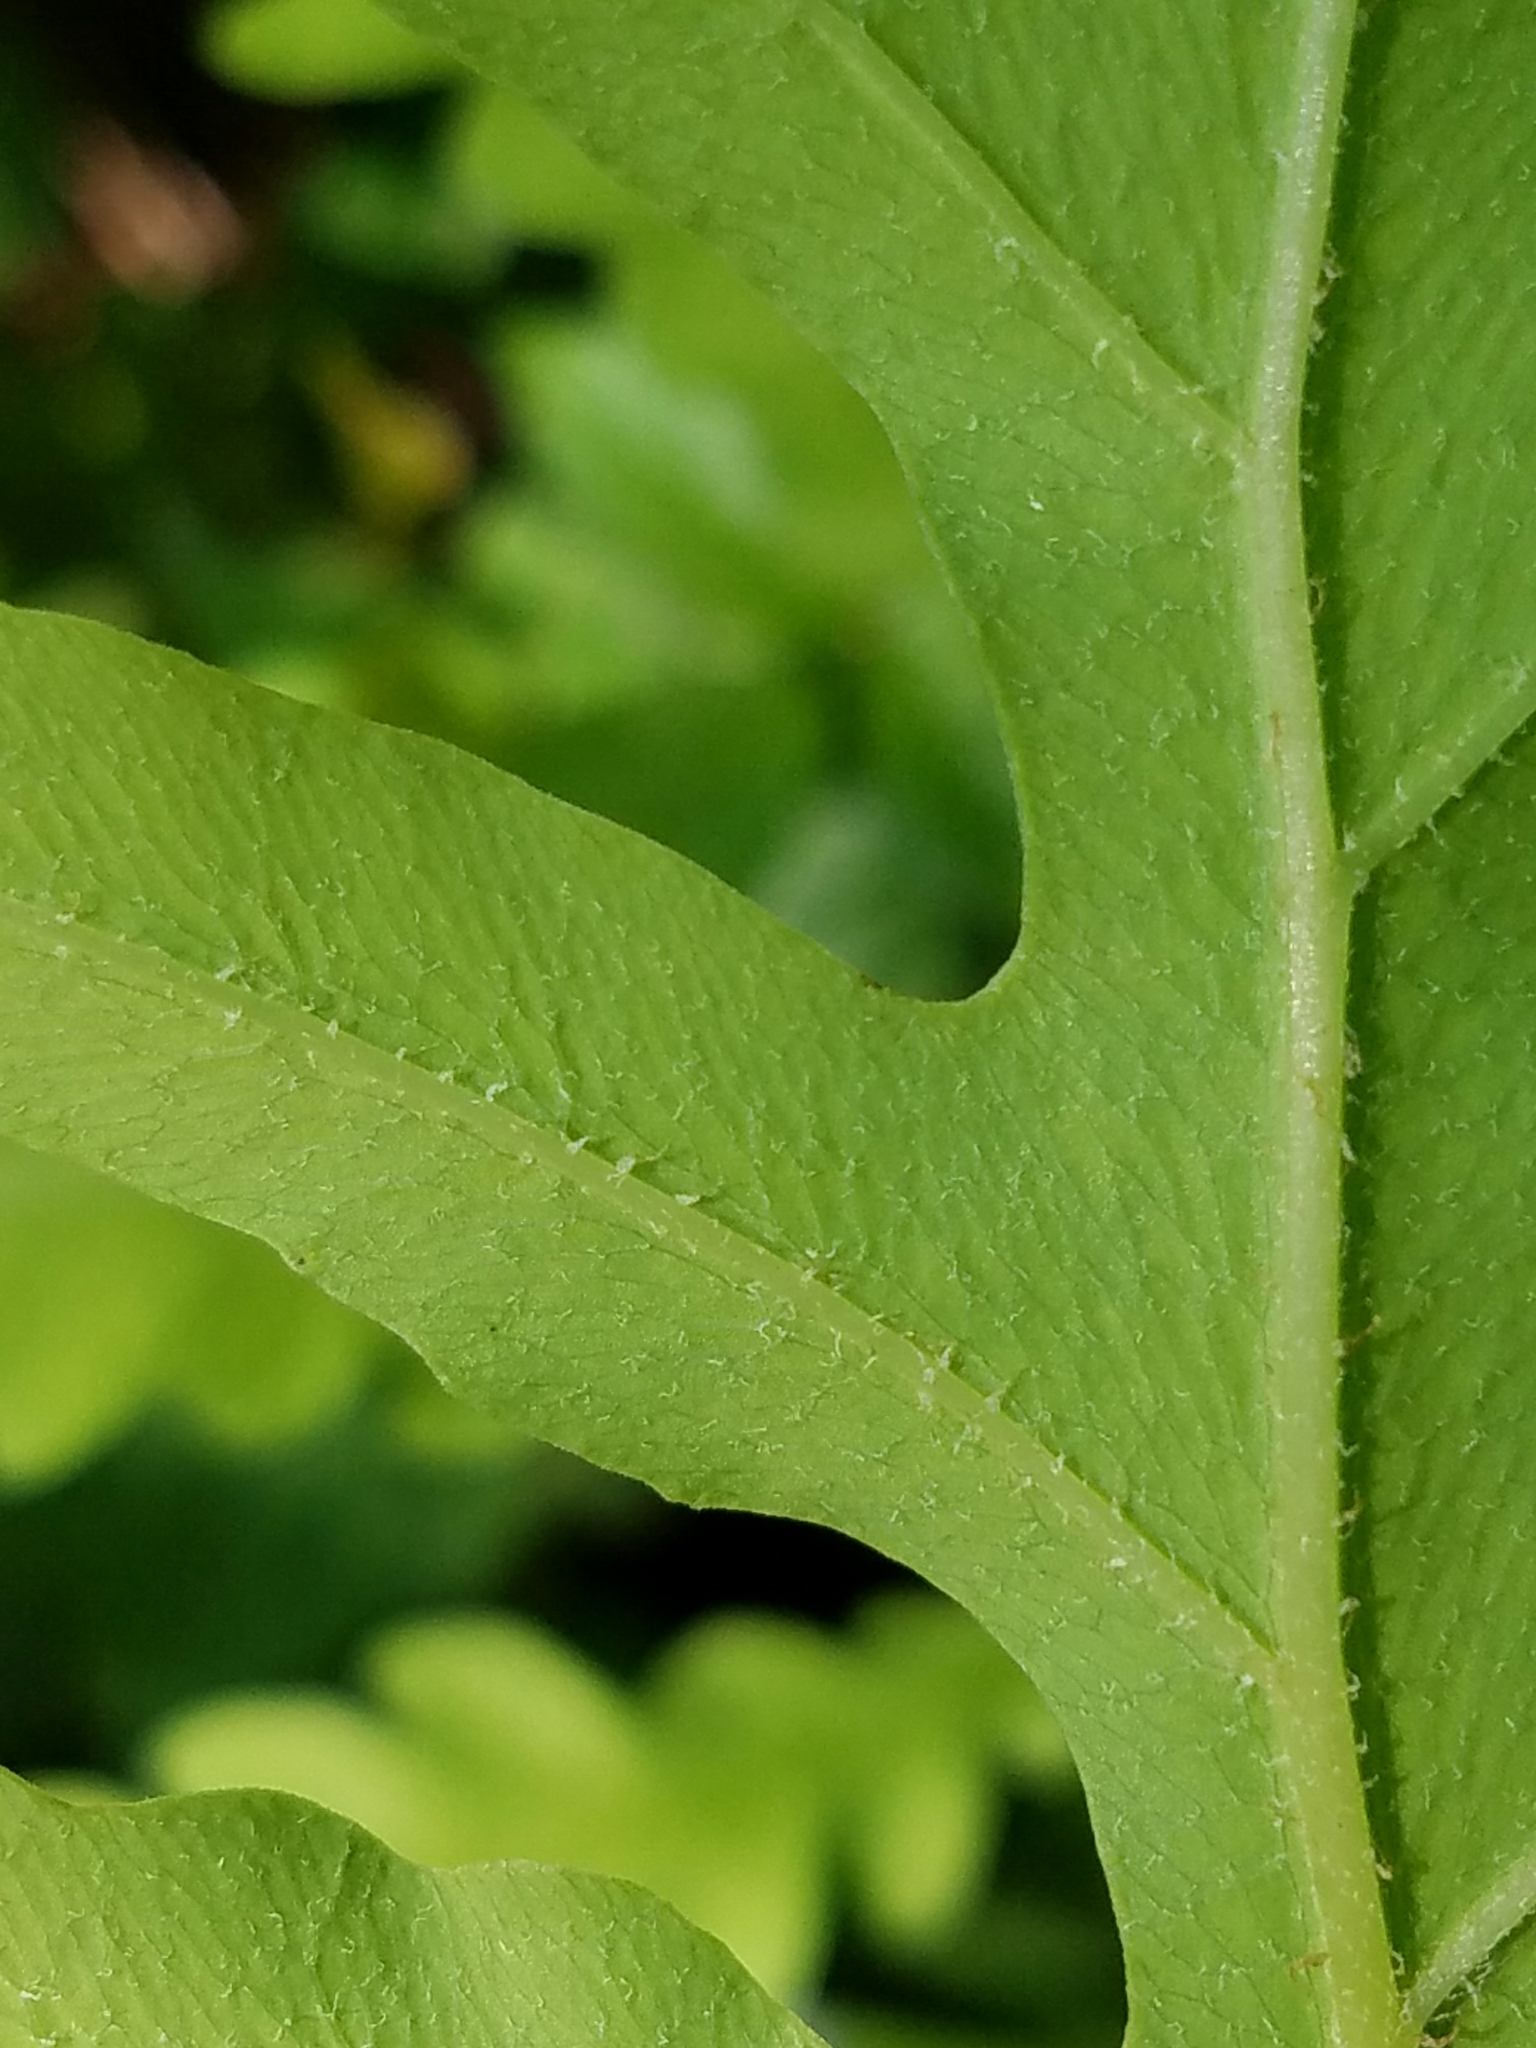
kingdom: Plantae
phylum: Tracheophyta
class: Polypodiopsida
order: Polypodiales
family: Onocleaceae
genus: Onoclea
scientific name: Onoclea sensibilis
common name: Sensitive fern
